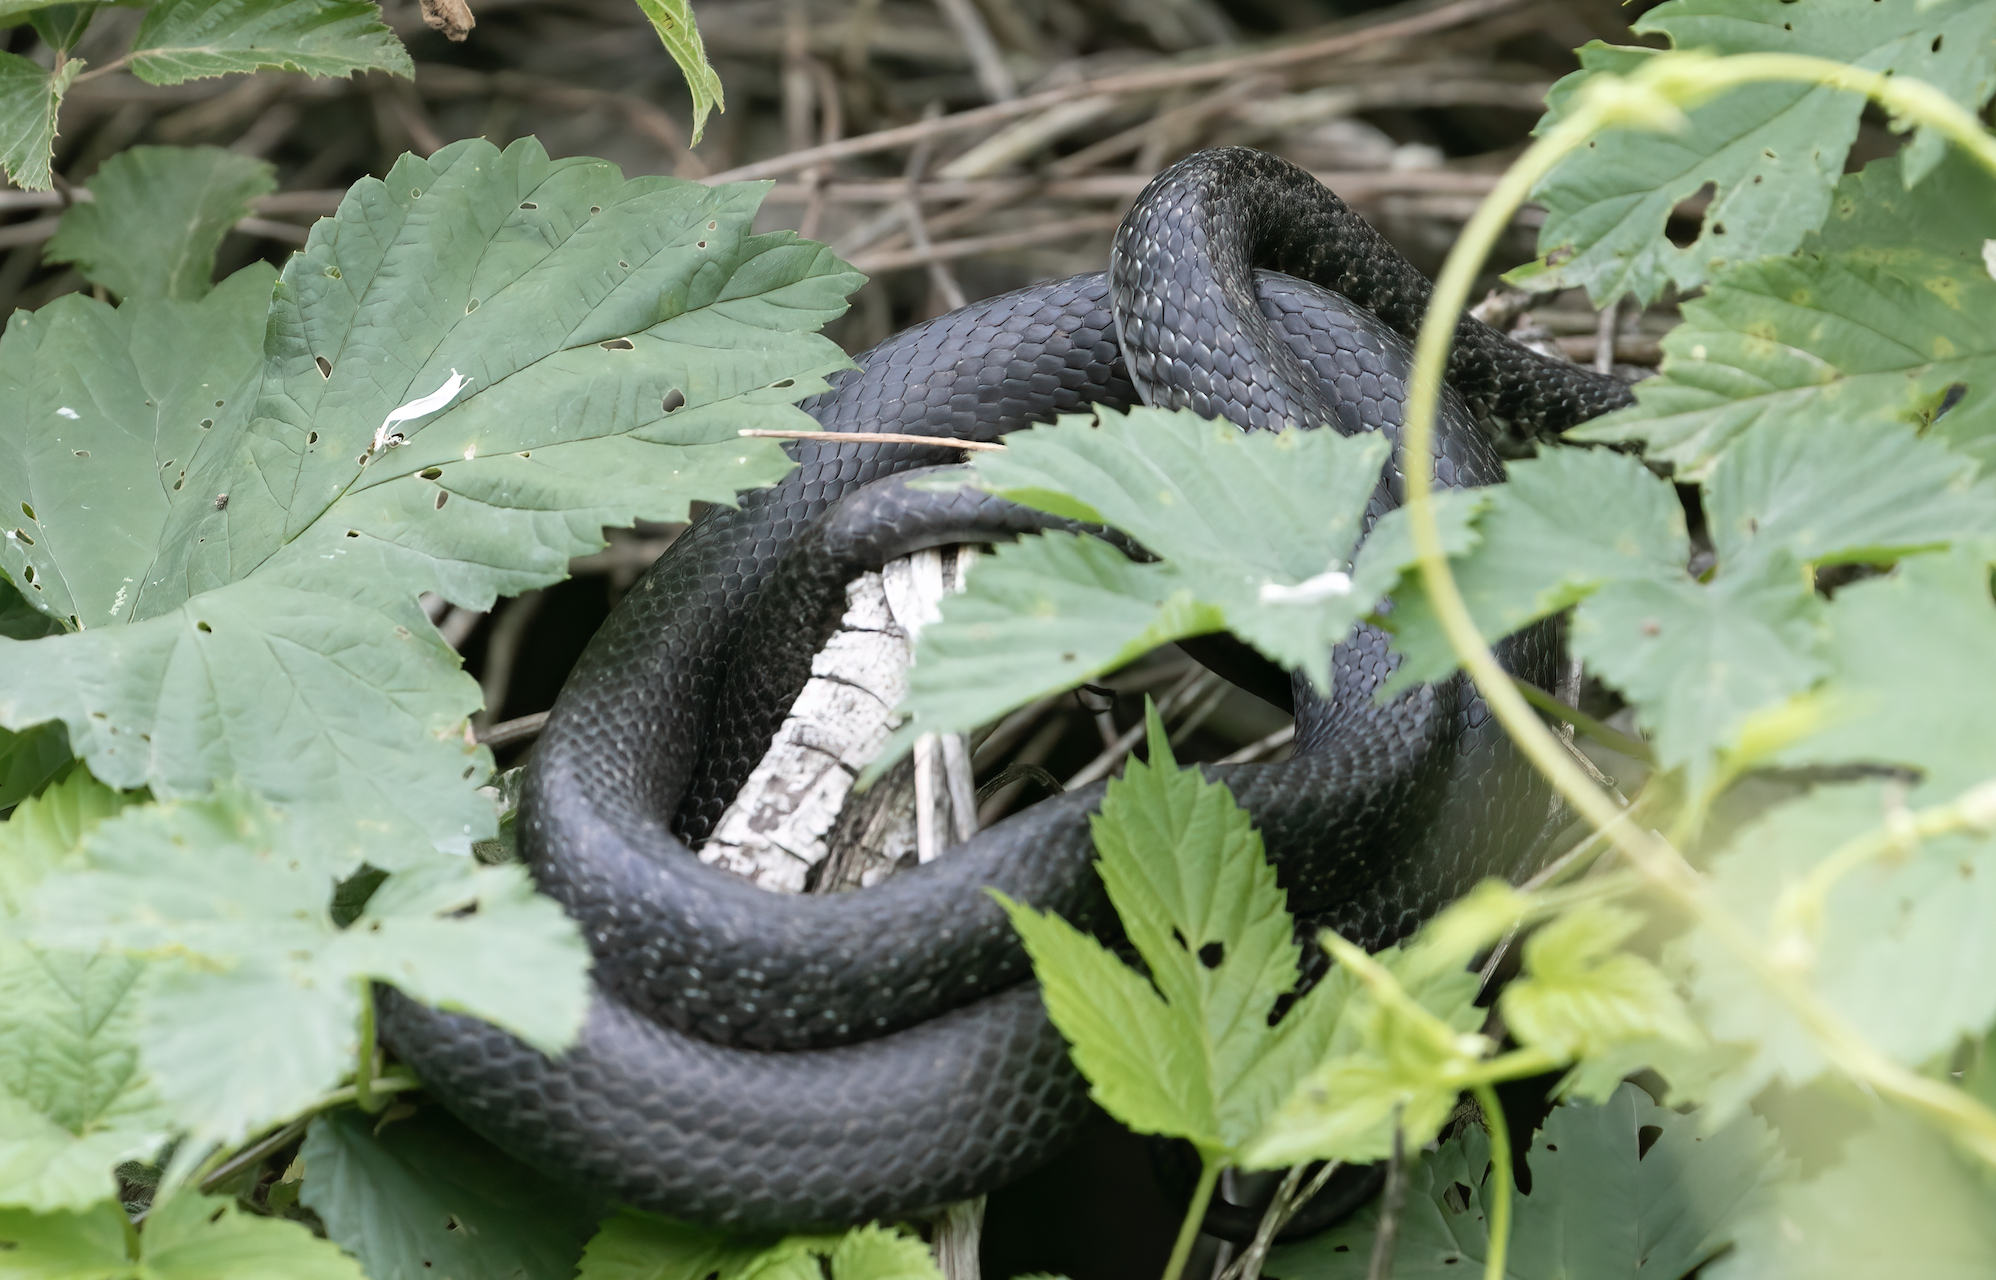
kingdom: Animalia
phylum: Chordata
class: Squamata
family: Colubridae
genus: Hierophis
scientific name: Hierophis viridiflavus
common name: Green whip snake
